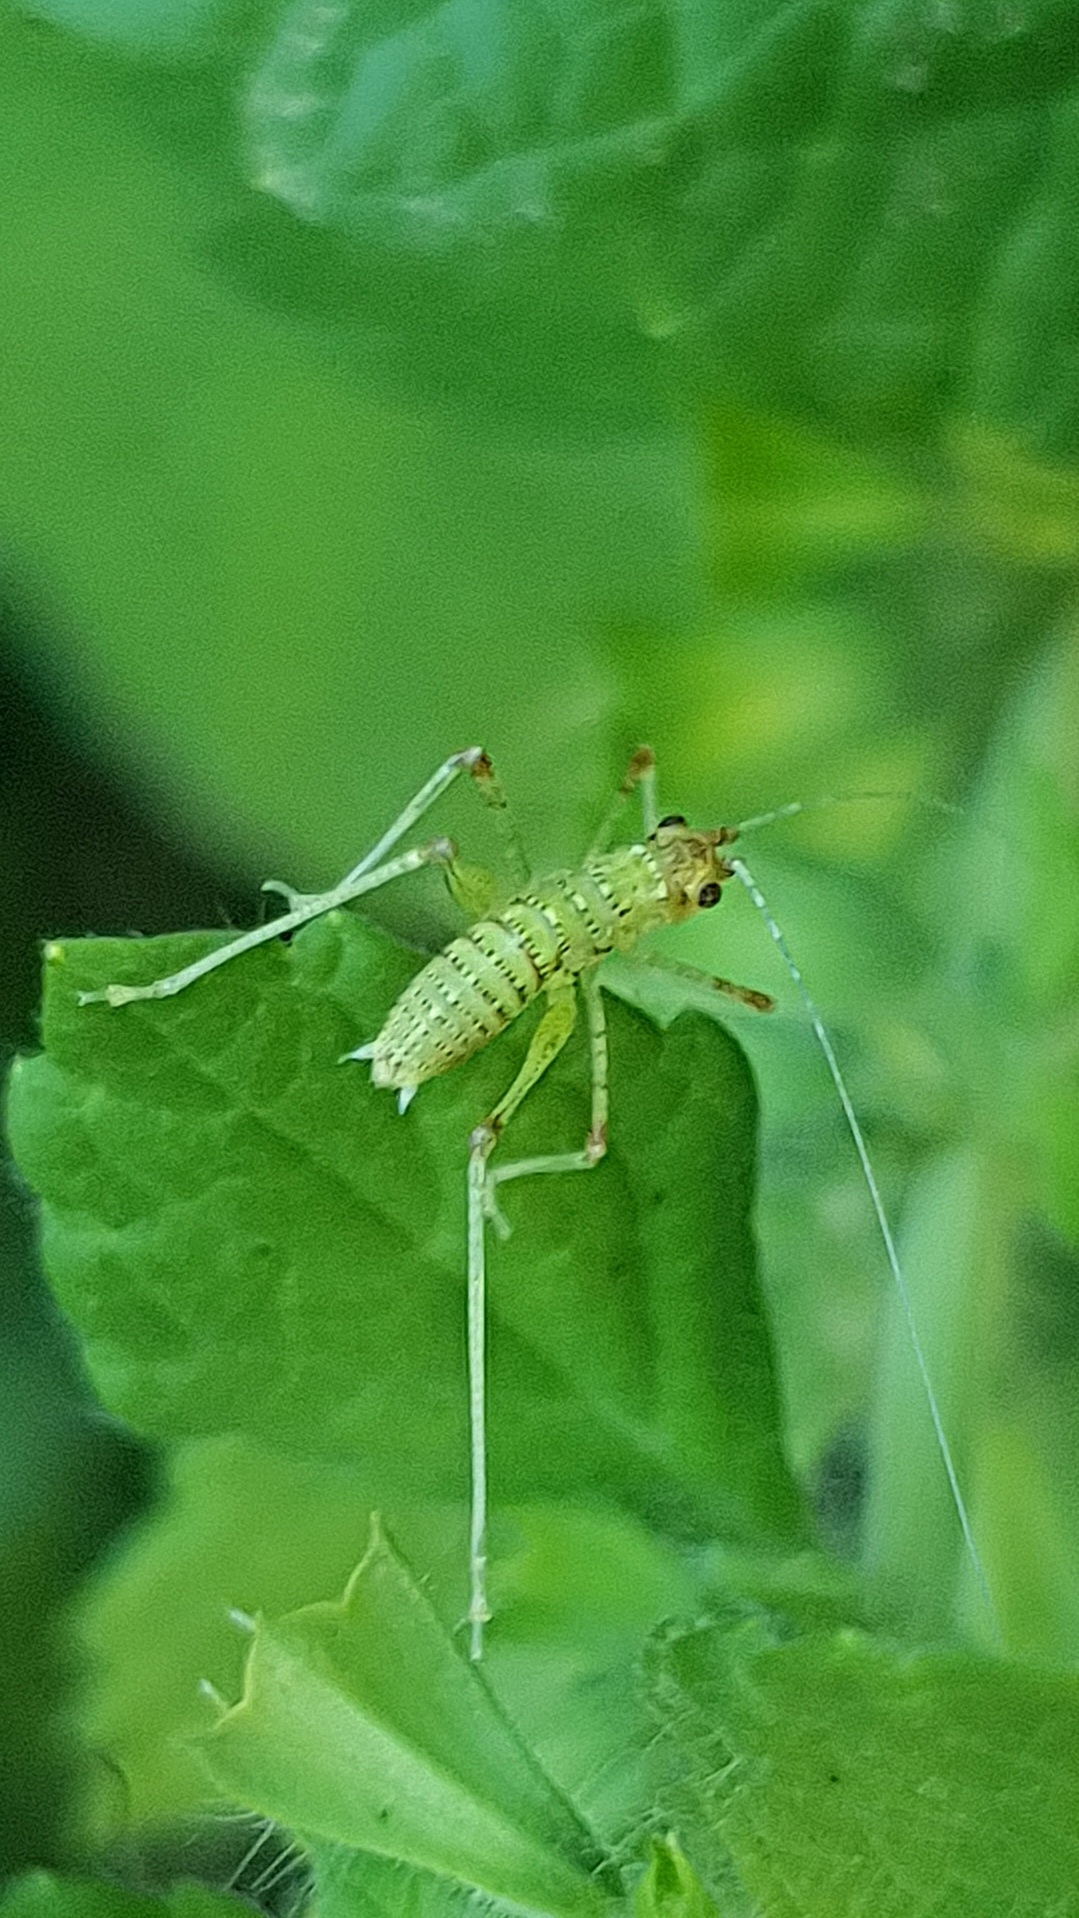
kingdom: Animalia
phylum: Arthropoda
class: Insecta
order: Orthoptera
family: Tettigoniidae
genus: Phaneroptera
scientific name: Phaneroptera nana
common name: Southern sickle bush-cricket
